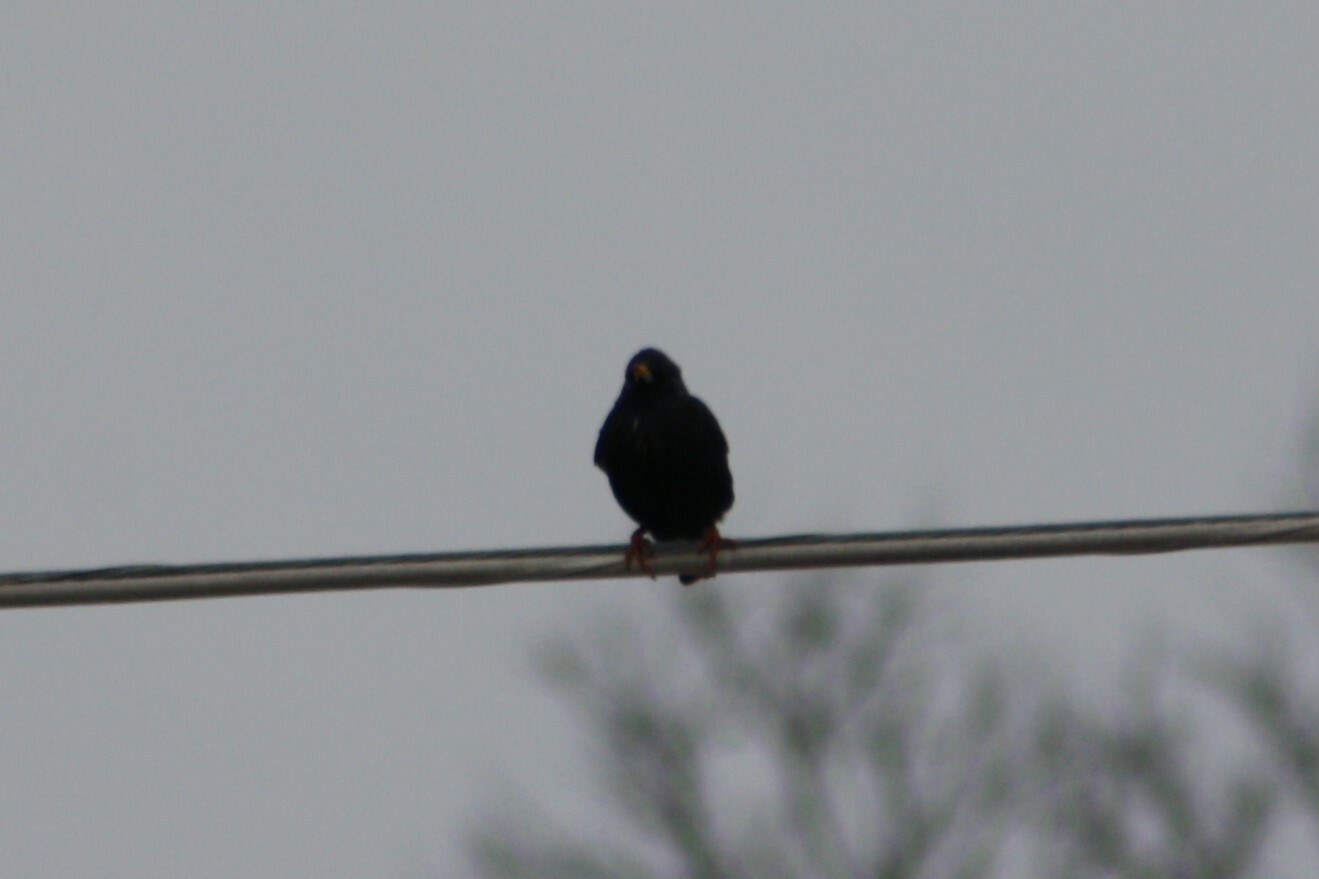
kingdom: Animalia
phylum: Chordata
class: Aves
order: Passeriformes
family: Sturnidae
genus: Sturnus
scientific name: Sturnus vulgaris
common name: Common starling
